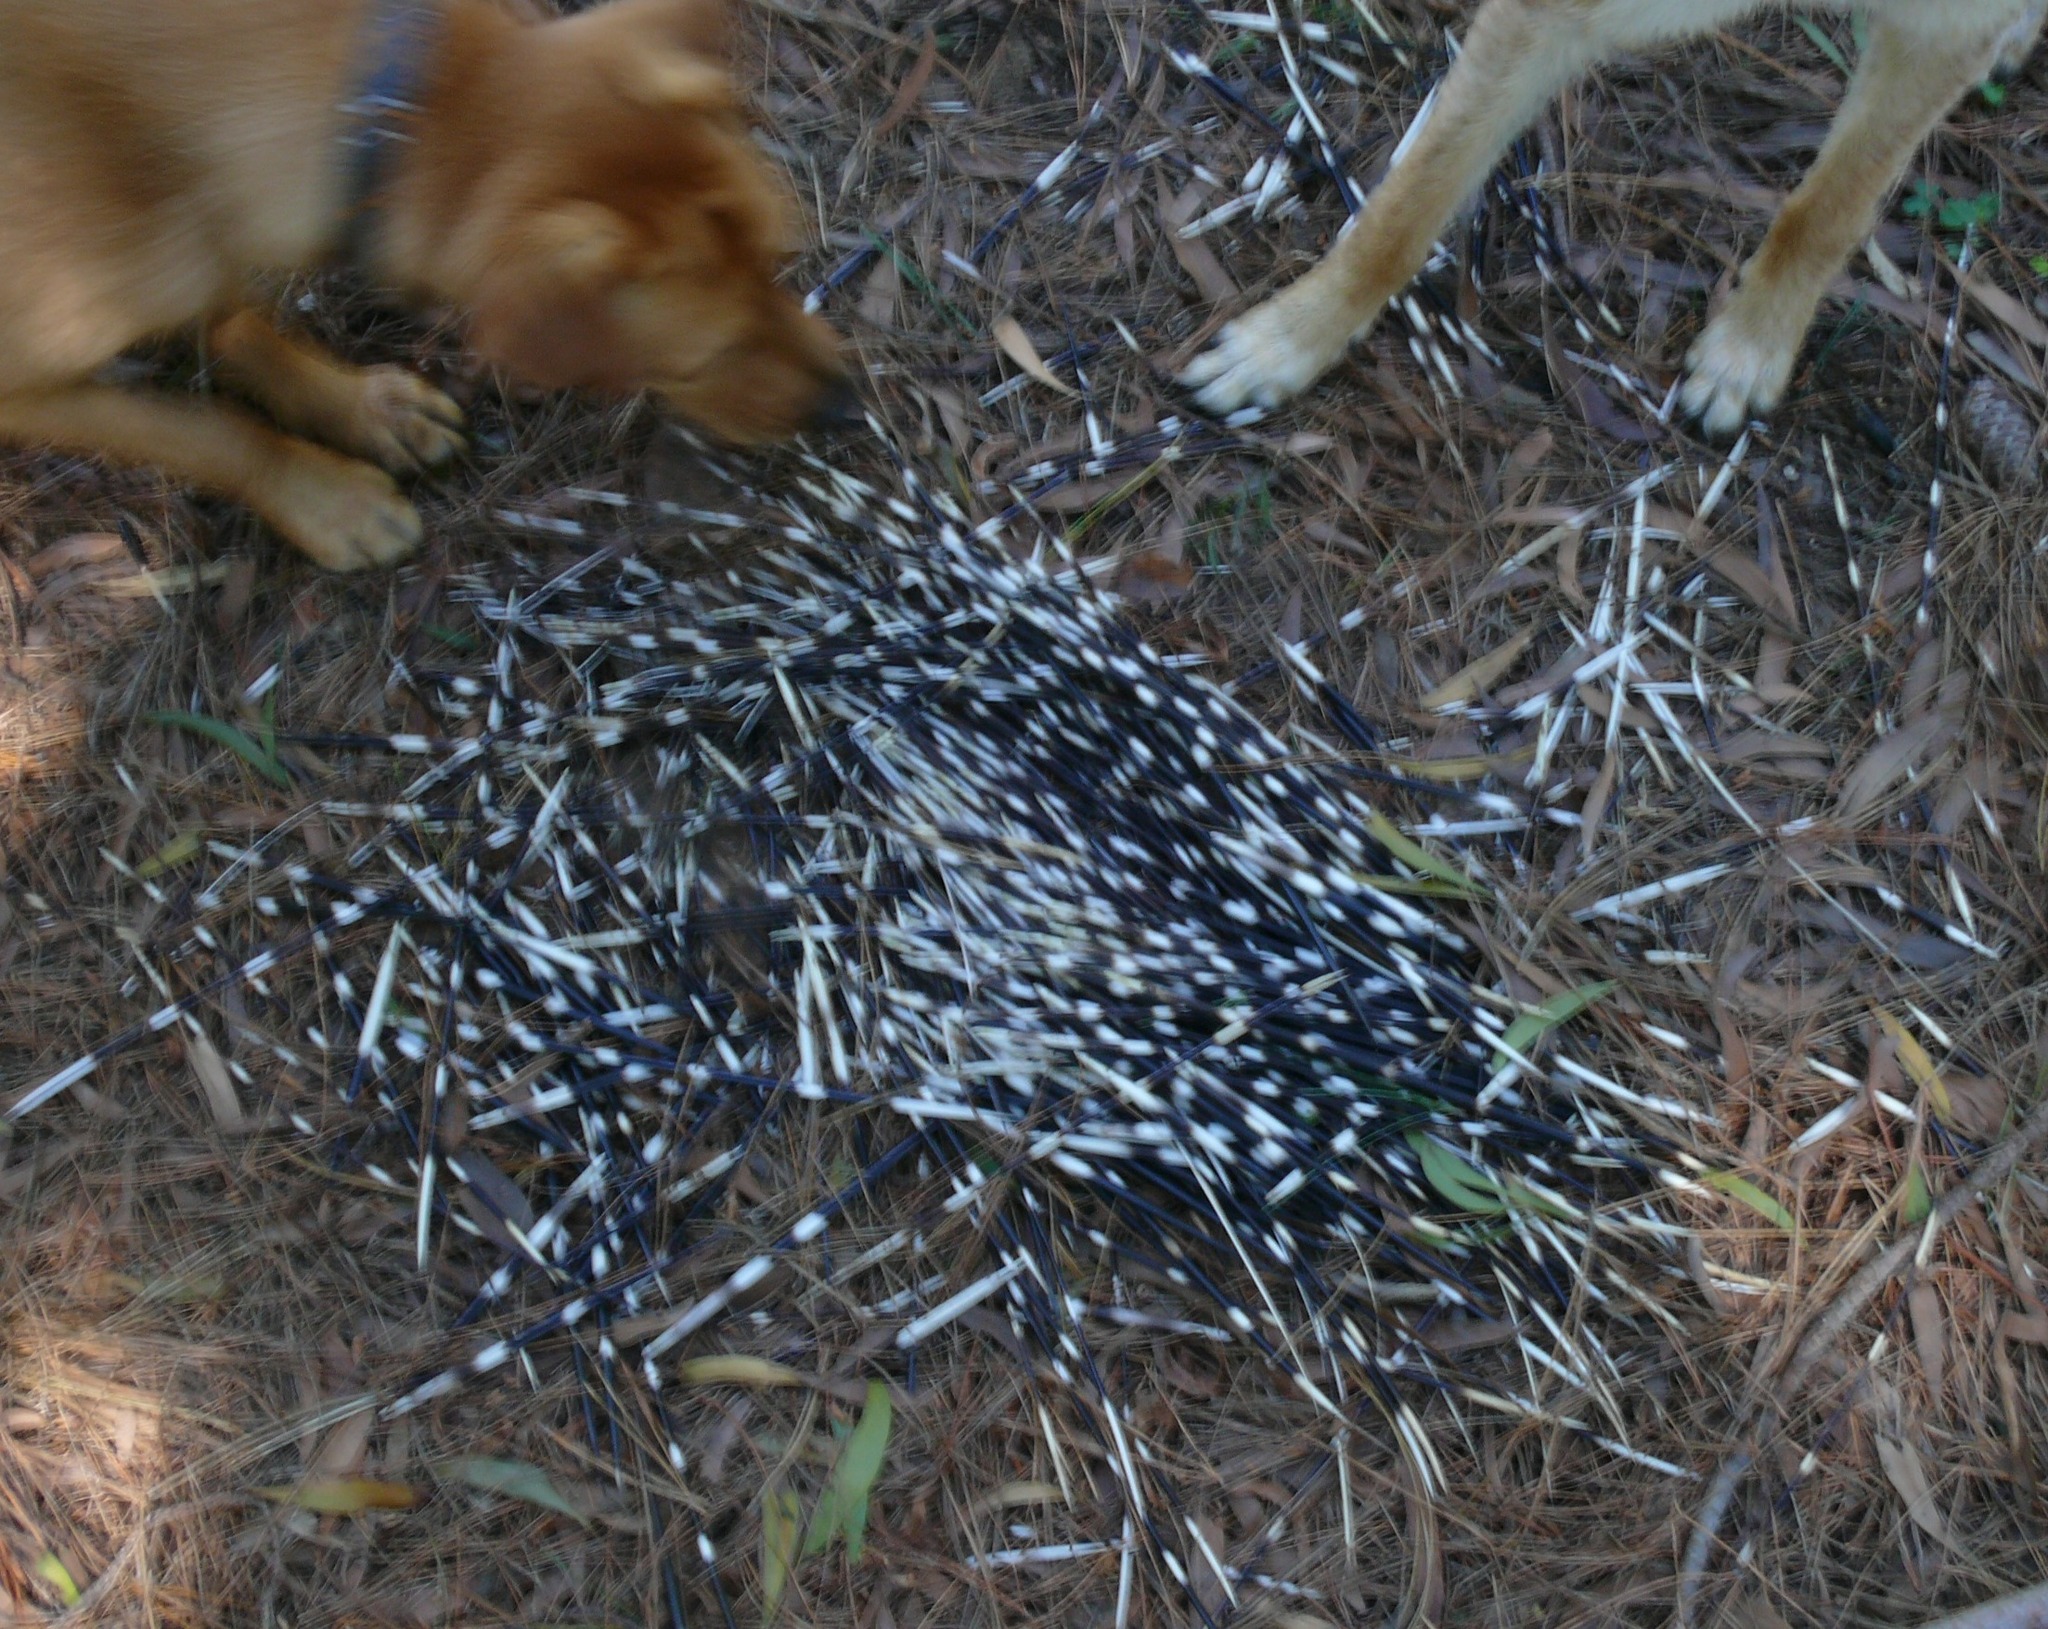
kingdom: Animalia
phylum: Chordata
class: Mammalia
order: Rodentia
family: Hystricidae
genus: Hystrix
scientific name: Hystrix africaeaustralis
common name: Cape porcupine
